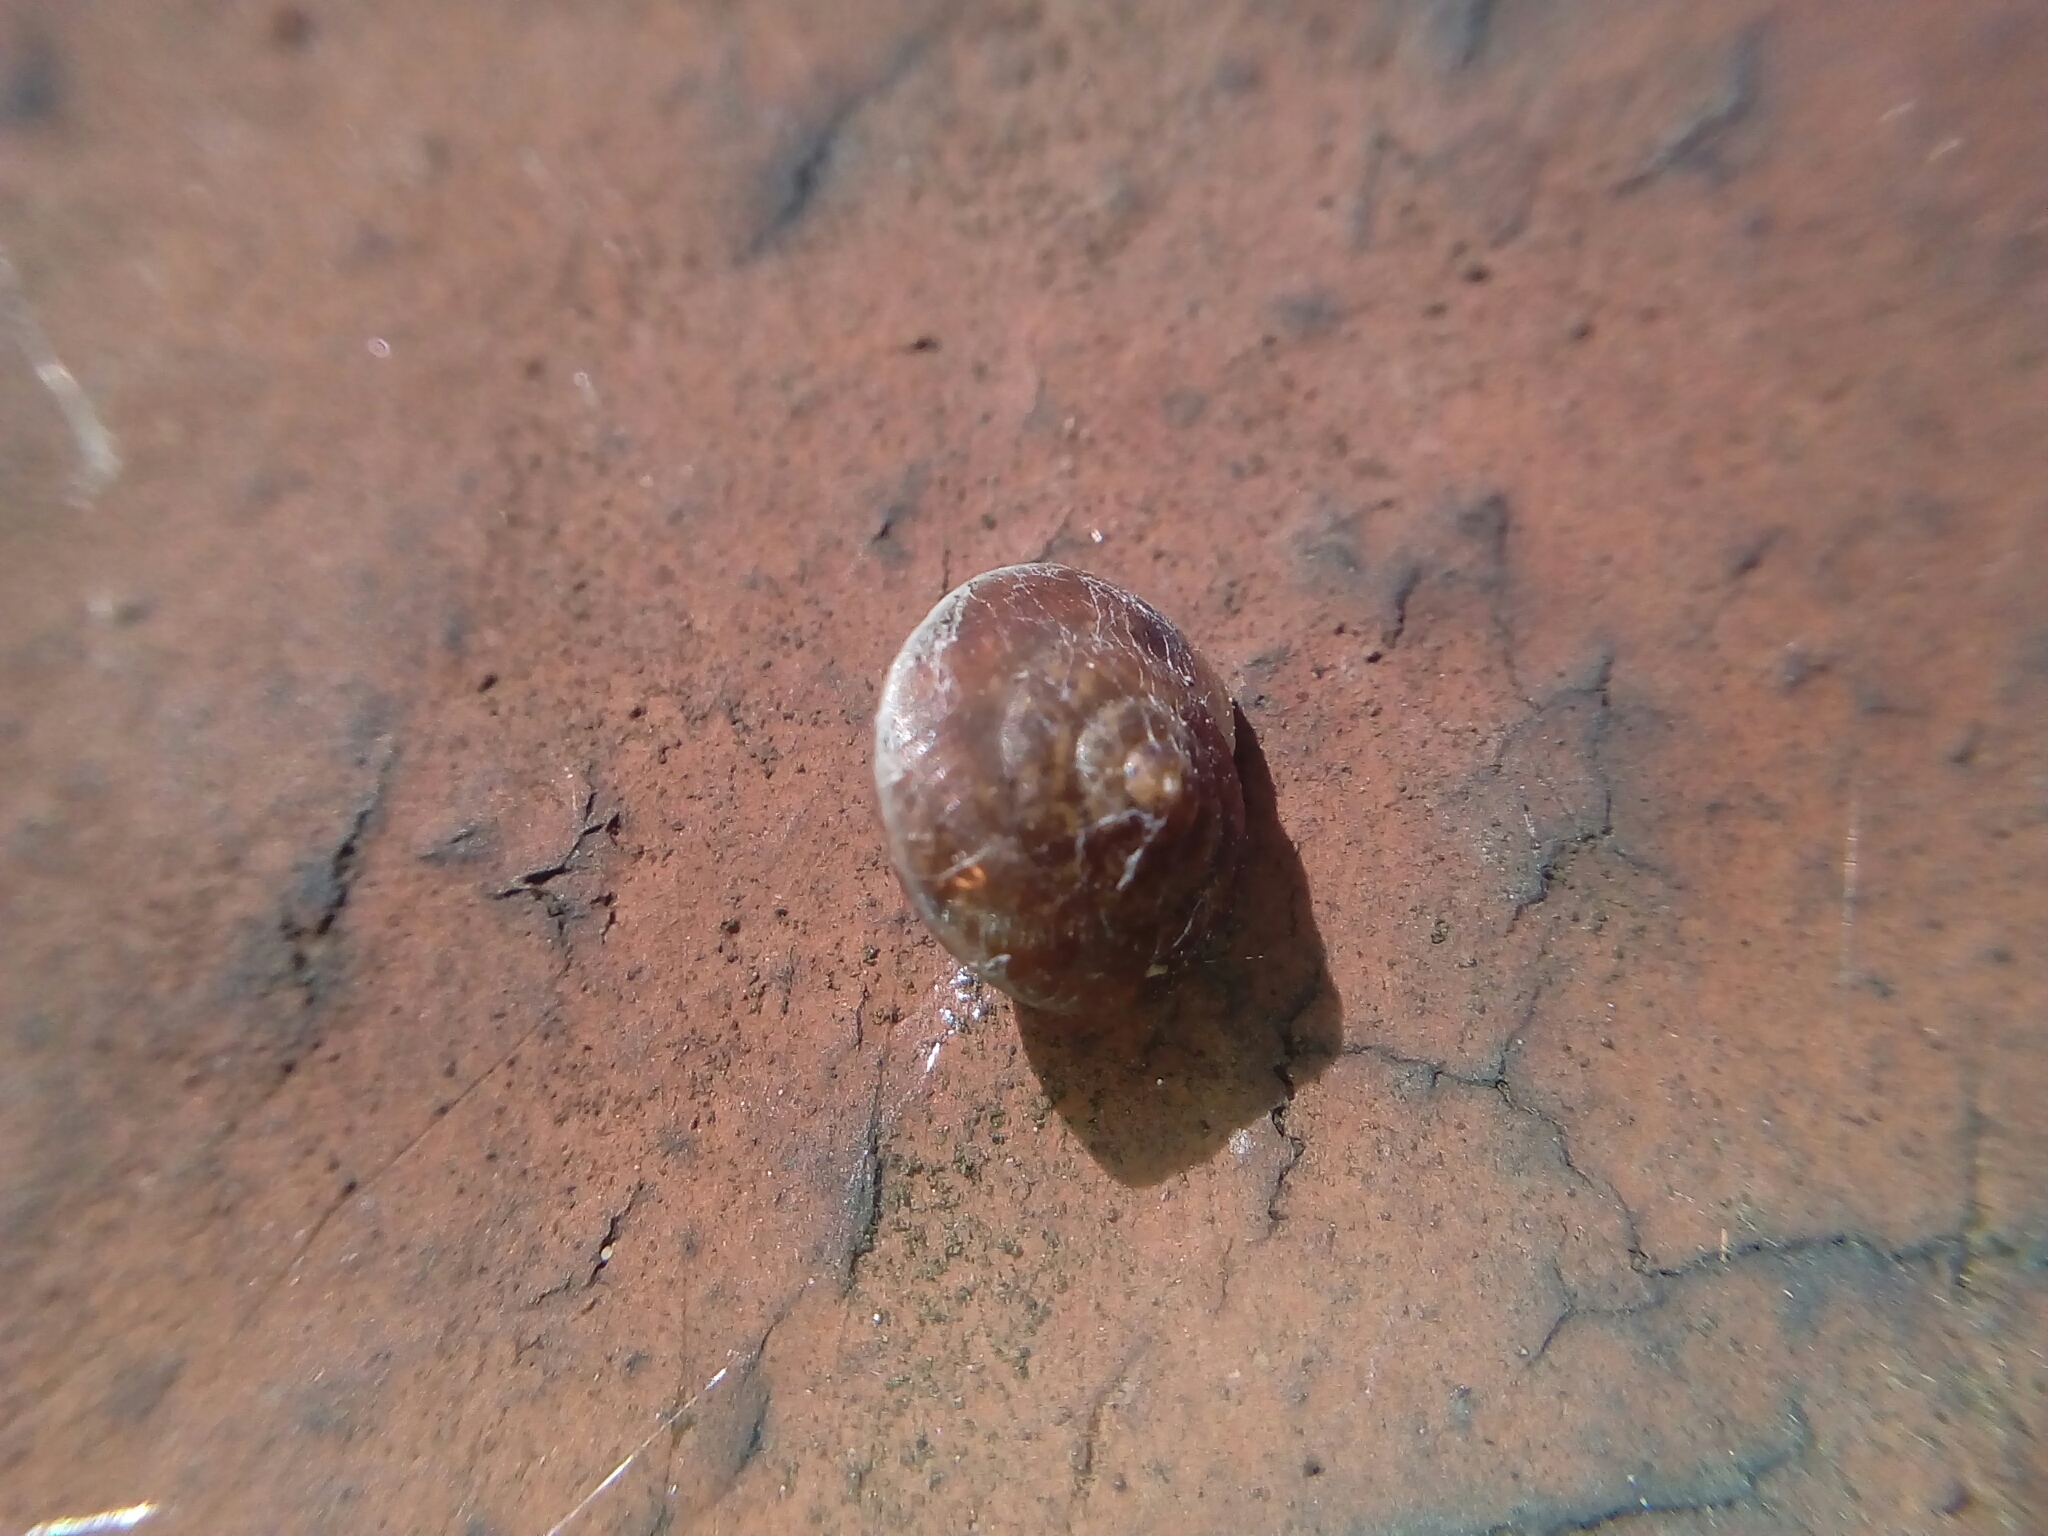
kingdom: Animalia
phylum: Mollusca
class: Gastropoda
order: Stylommatophora
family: Hygromiidae
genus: Hygromia
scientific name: Hygromia cinctella
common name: Girdled snail
